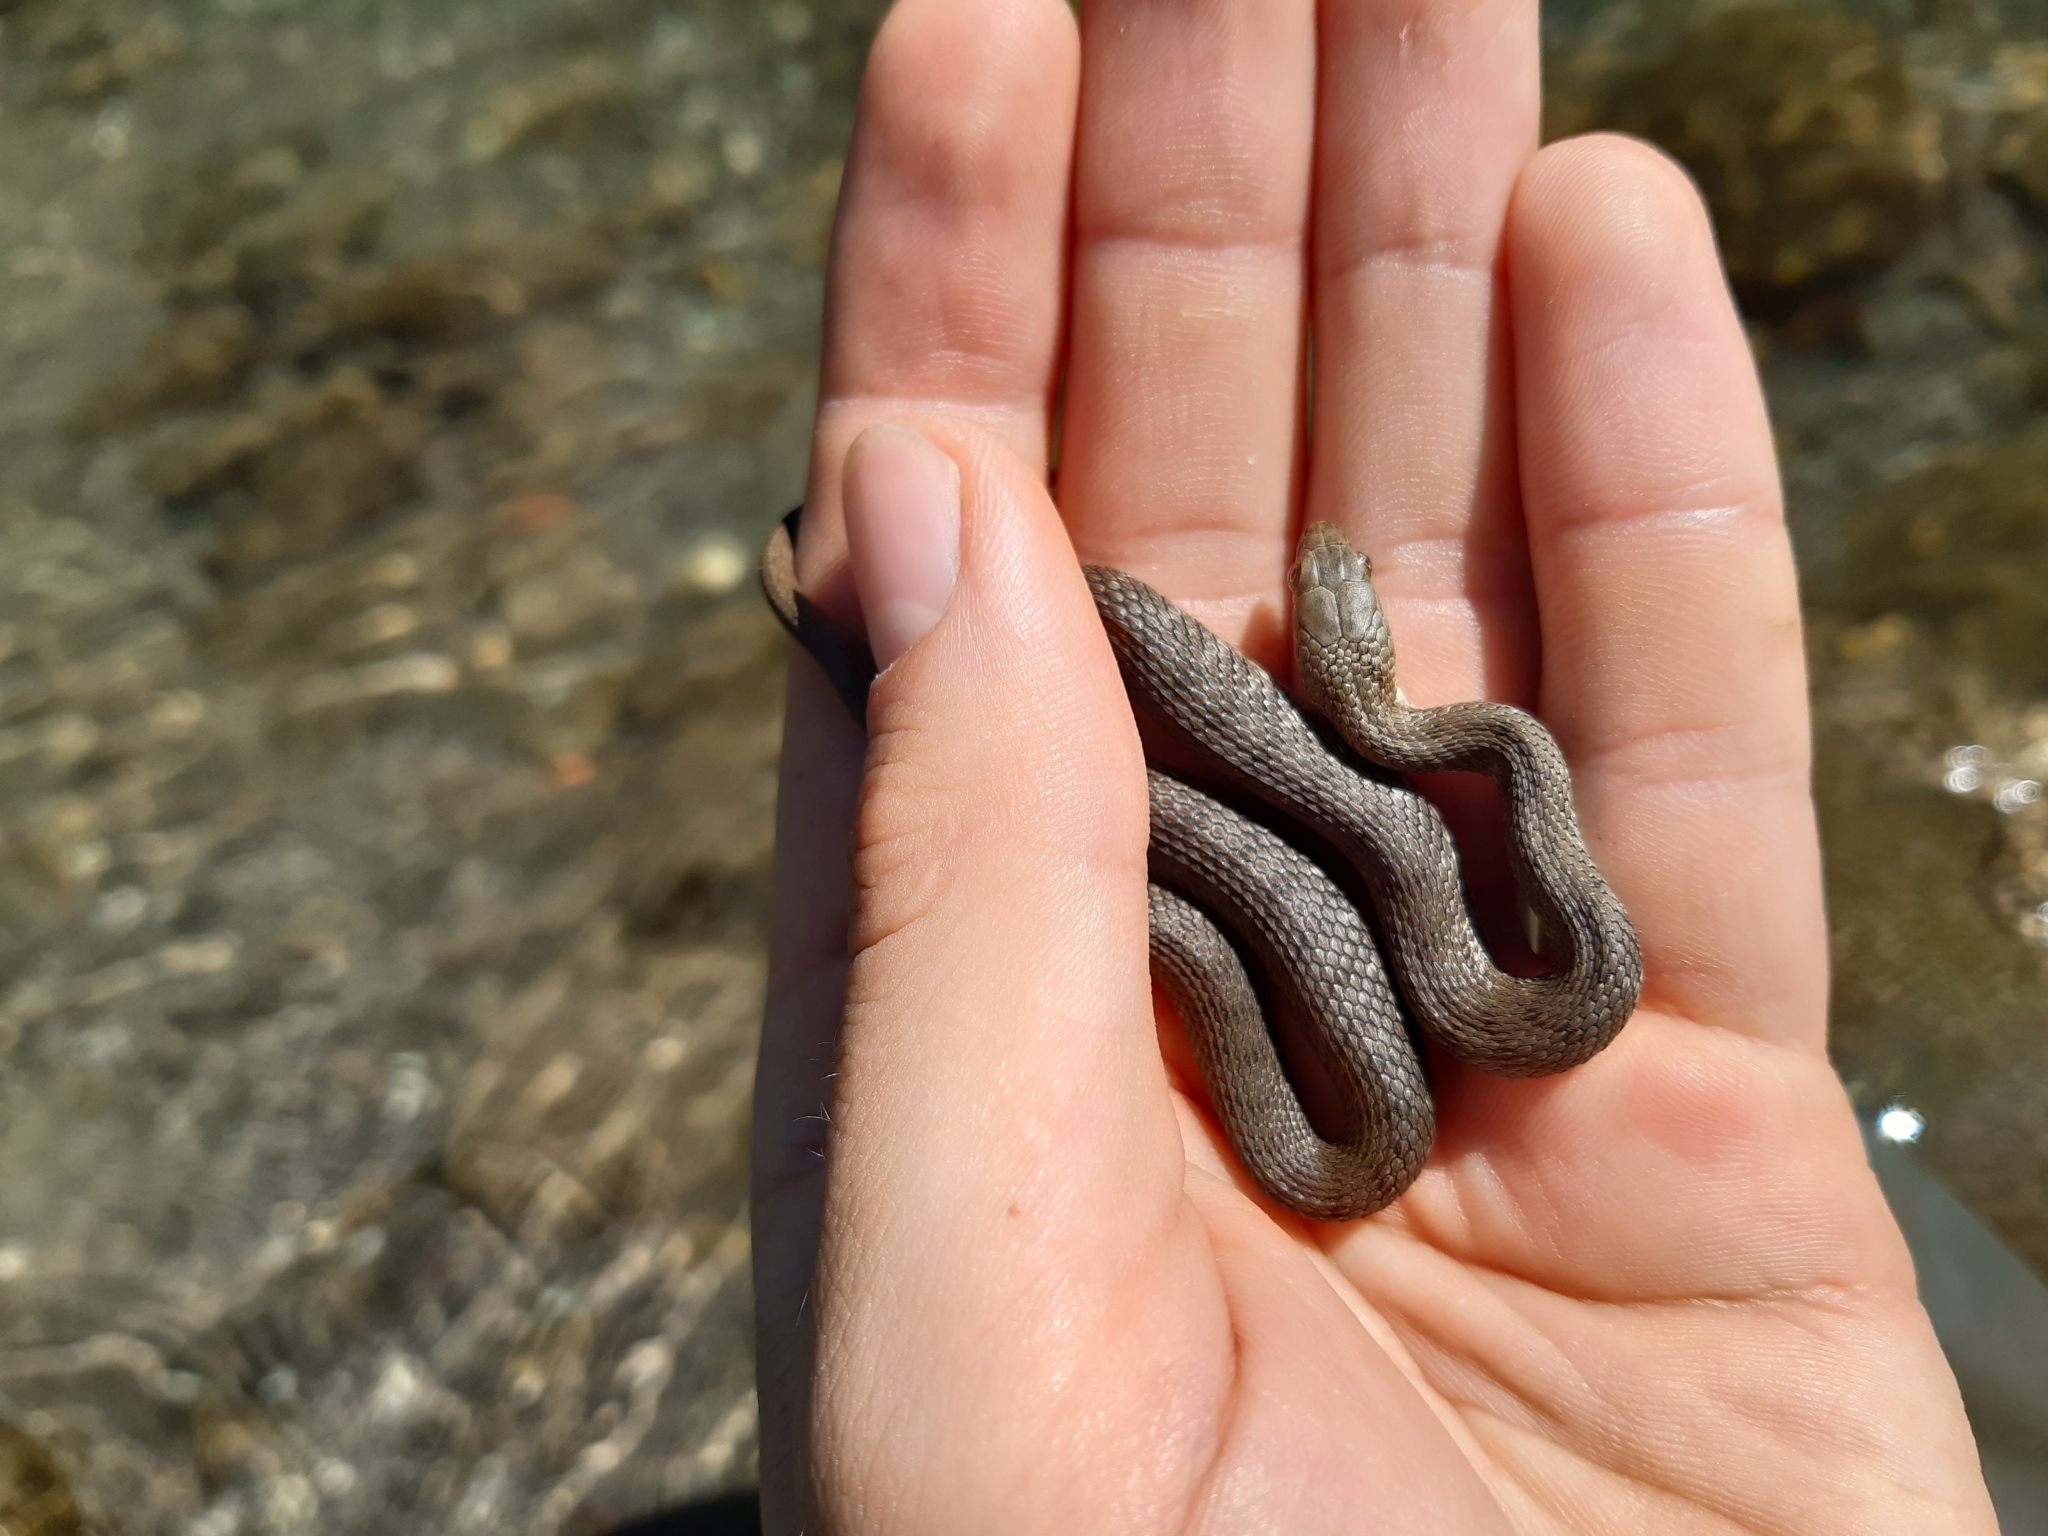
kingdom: Animalia
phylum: Chordata
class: Squamata
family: Colubridae
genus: Natrix
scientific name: Natrix tessellata
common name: Dice snake
